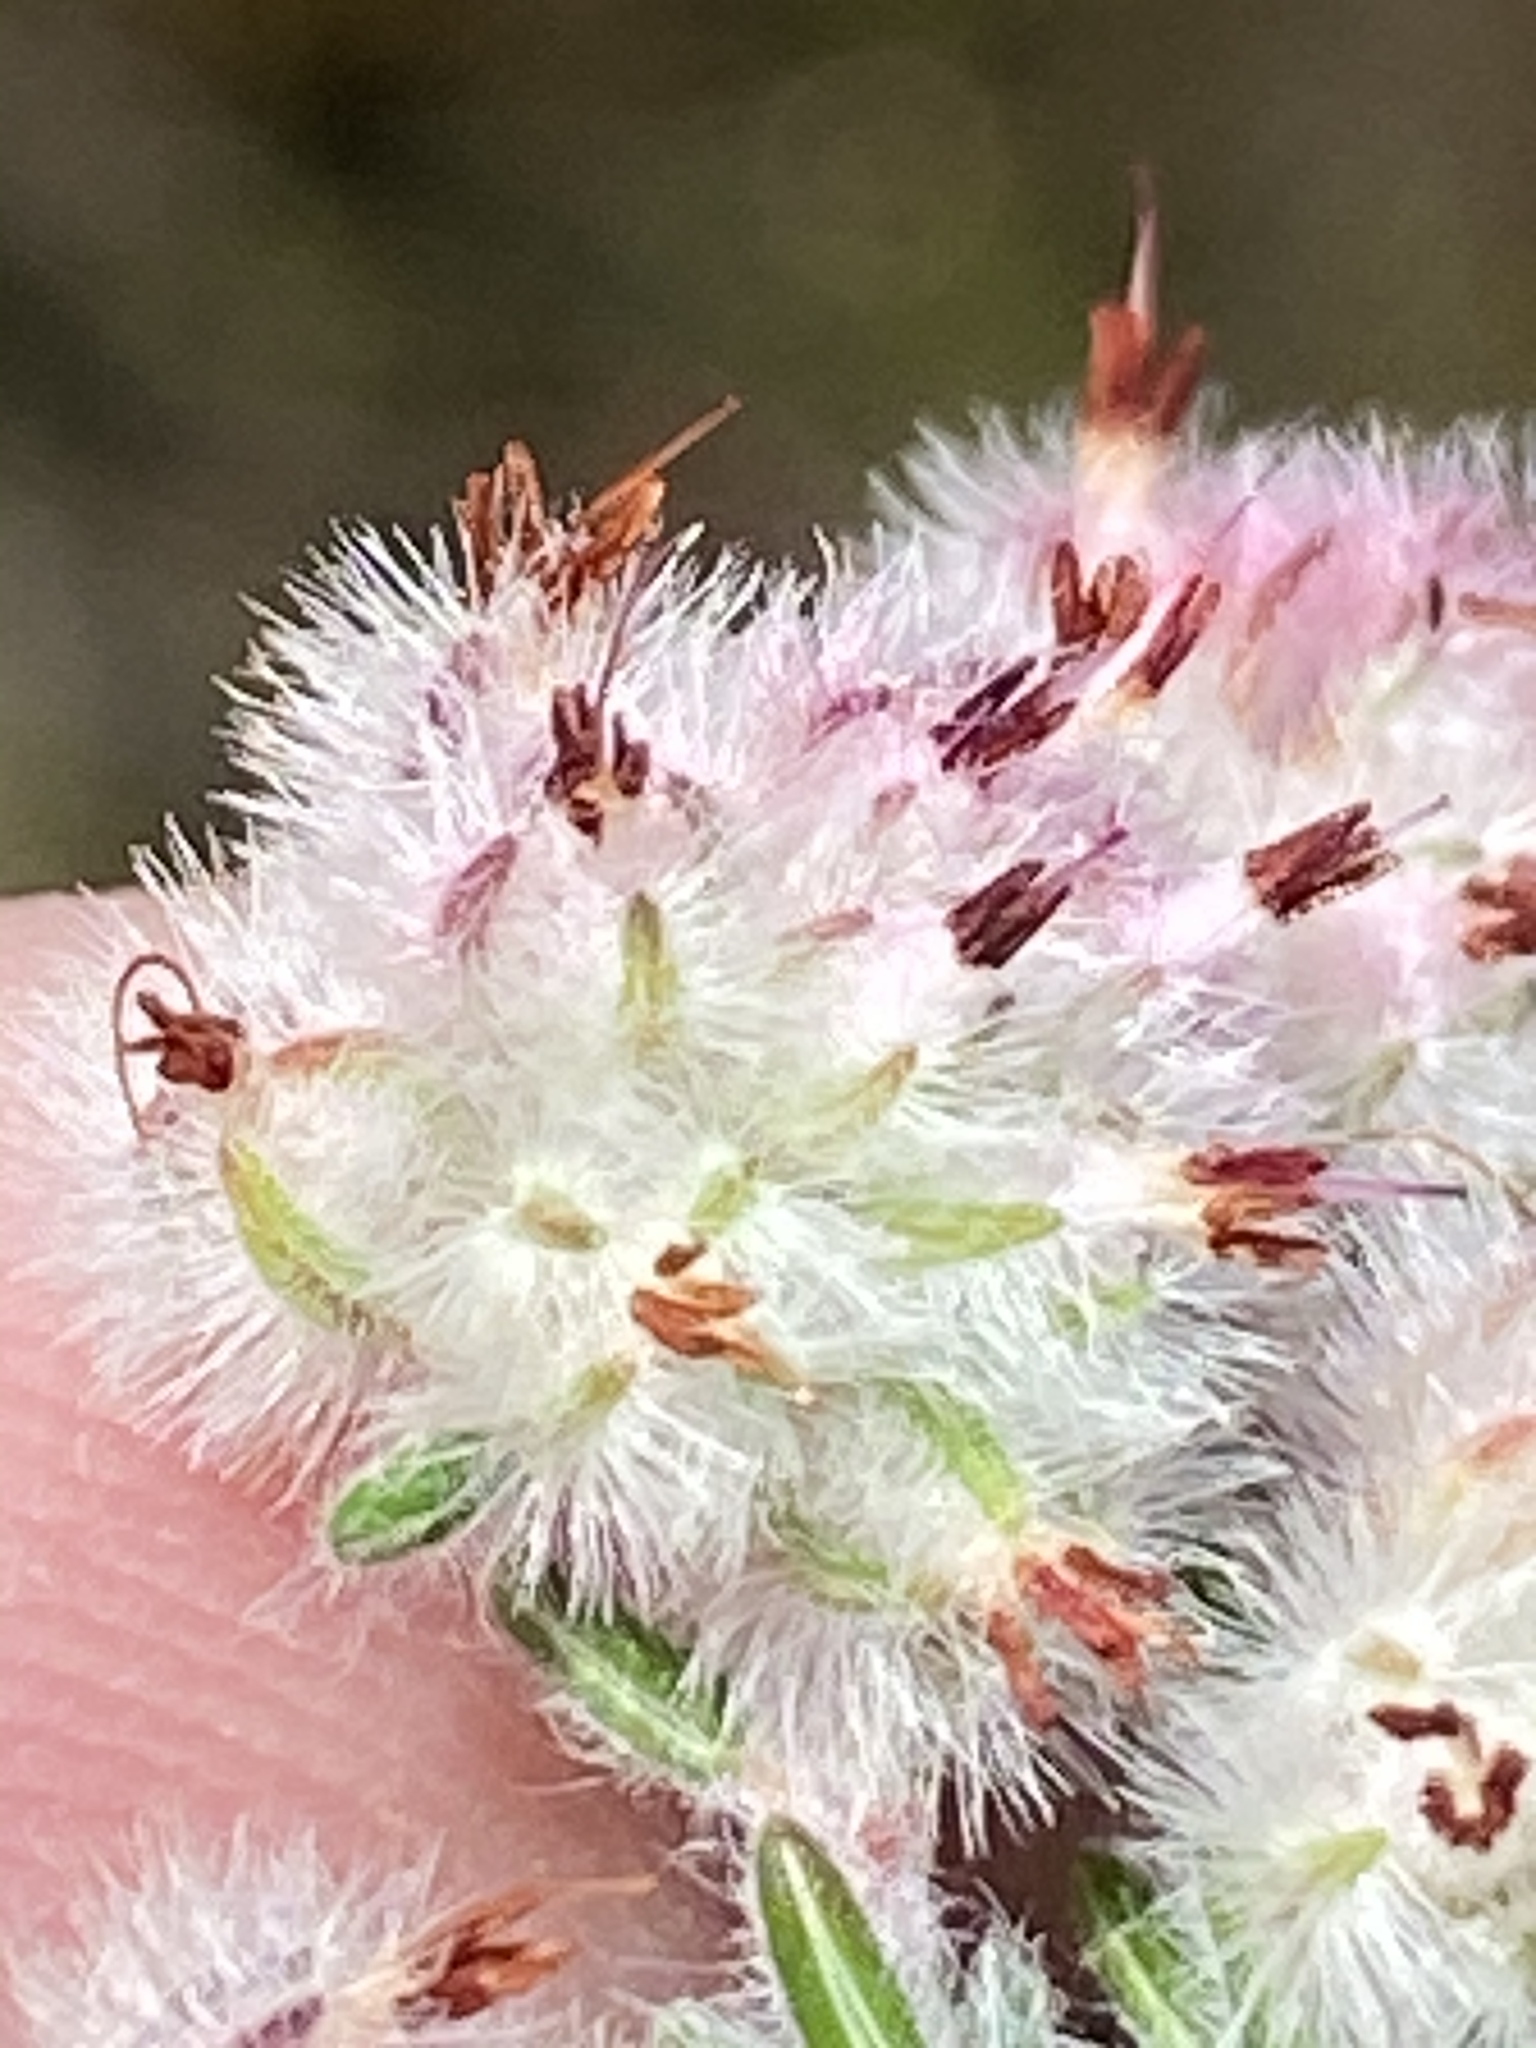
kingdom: Plantae
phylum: Tracheophyta
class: Magnoliopsida
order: Ericales
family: Ericaceae
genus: Erica
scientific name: Erica pilosiflora
